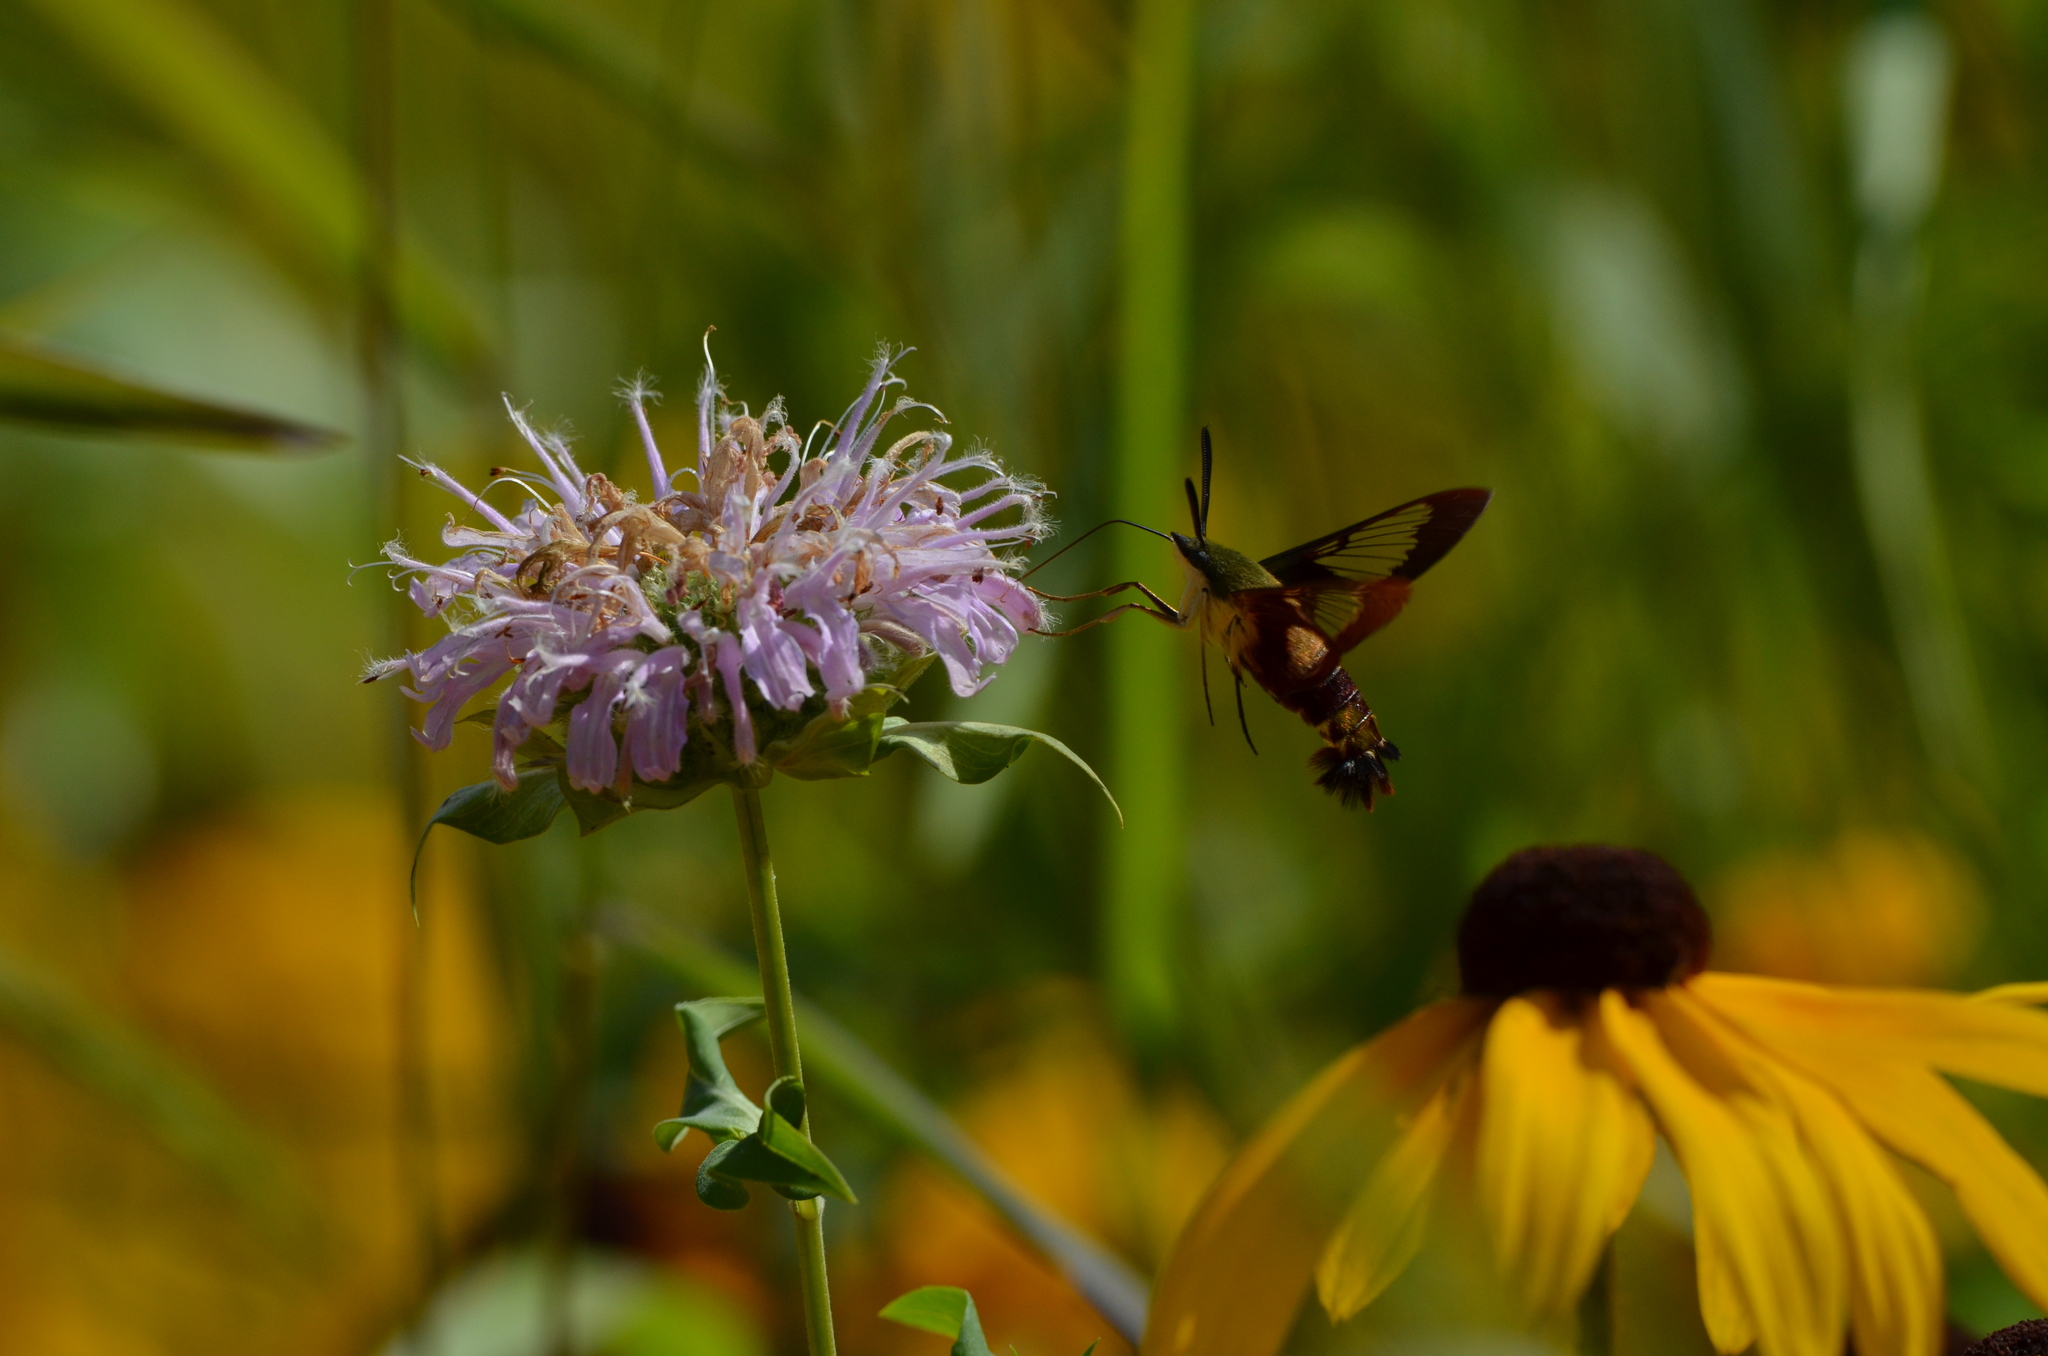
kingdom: Animalia
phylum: Arthropoda
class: Insecta
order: Lepidoptera
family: Sphingidae
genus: Hemaris
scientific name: Hemaris thysbe
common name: Common clear-wing
